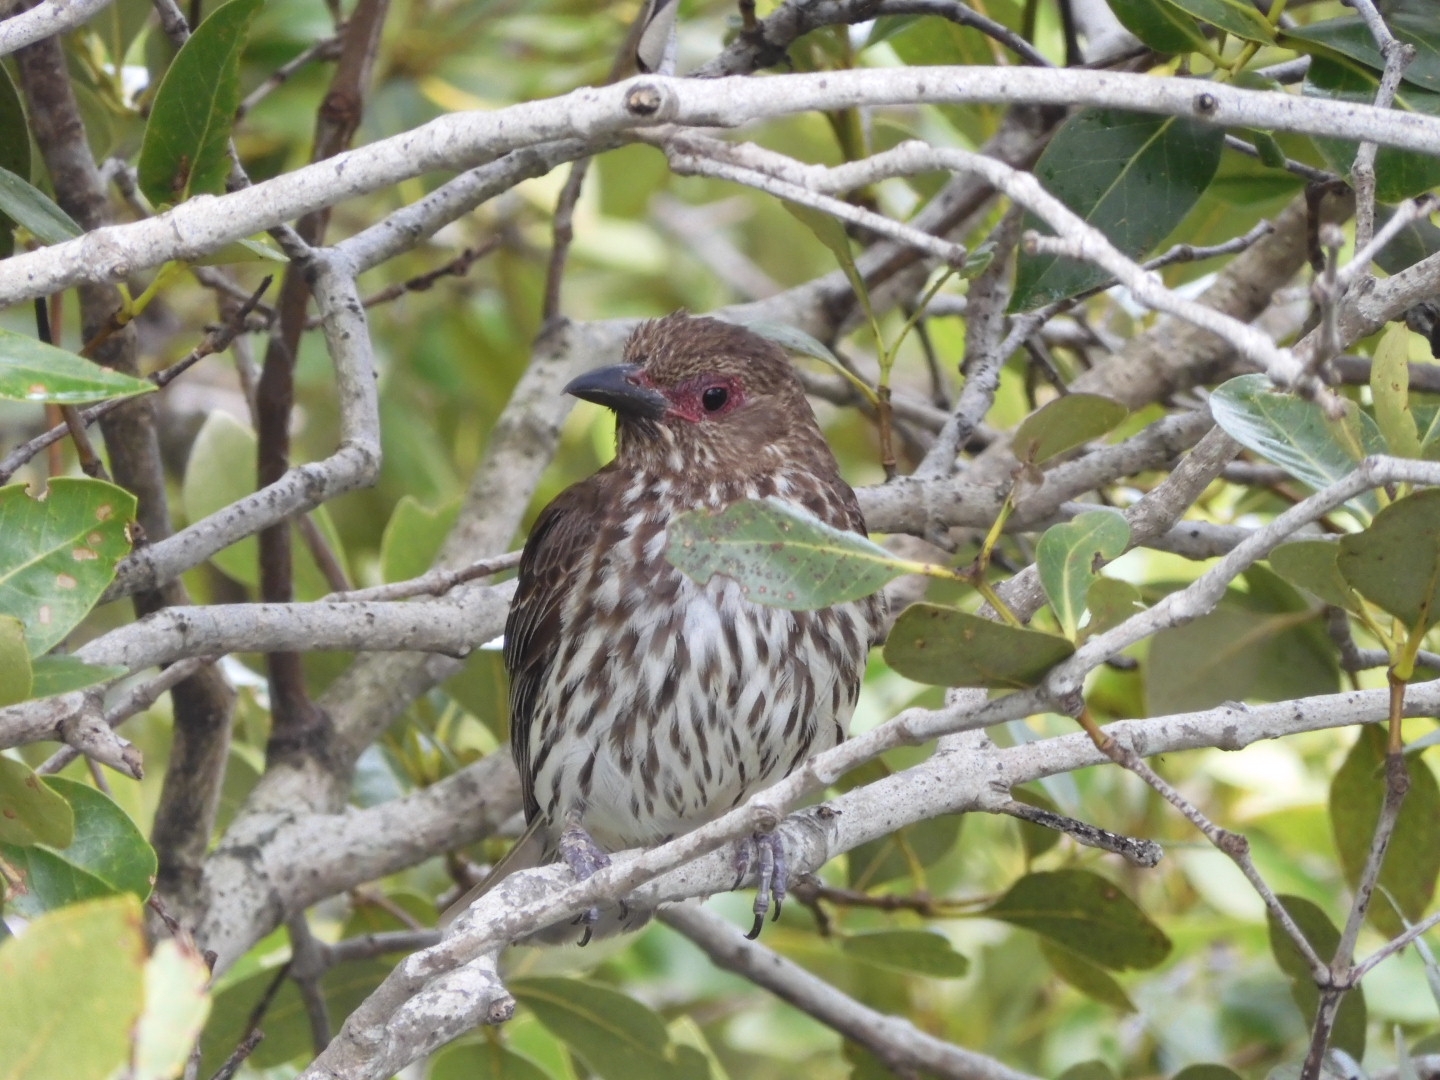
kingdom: Animalia
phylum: Chordata
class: Aves
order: Passeriformes
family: Oriolidae
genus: Sphecotheres
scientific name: Sphecotheres vieilloti
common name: Australasian figbird
